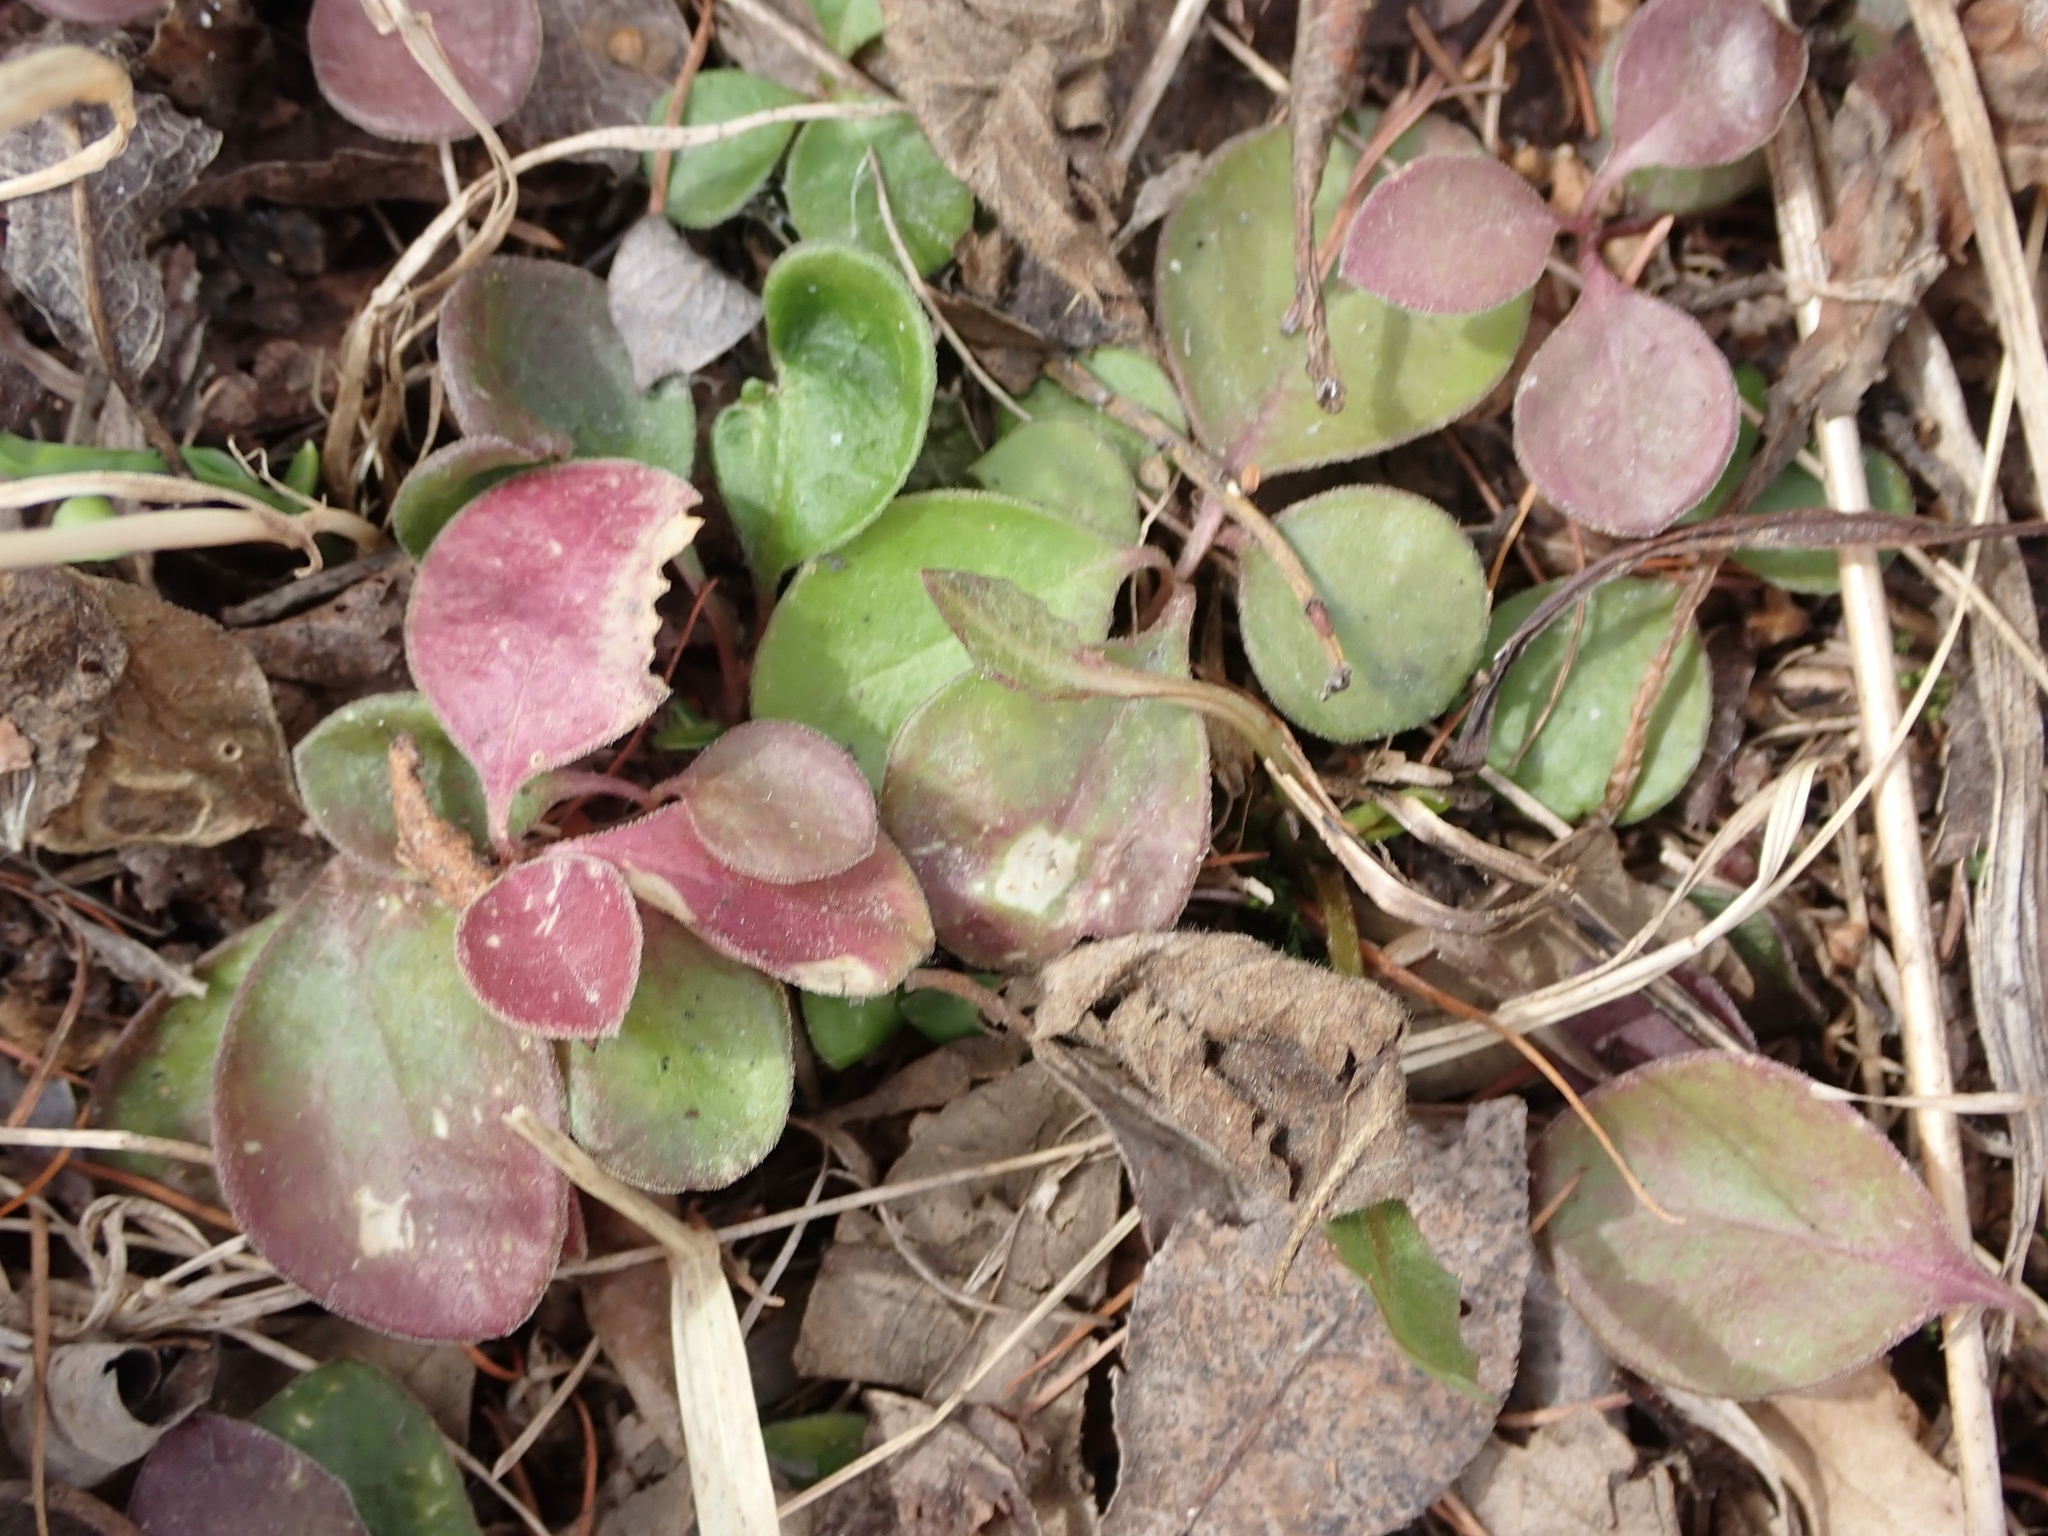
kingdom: Plantae
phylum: Tracheophyta
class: Magnoliopsida
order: Fabales
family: Polygalaceae
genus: Polygaloides
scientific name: Polygaloides paucifolia
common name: Bird-on-the-wing
